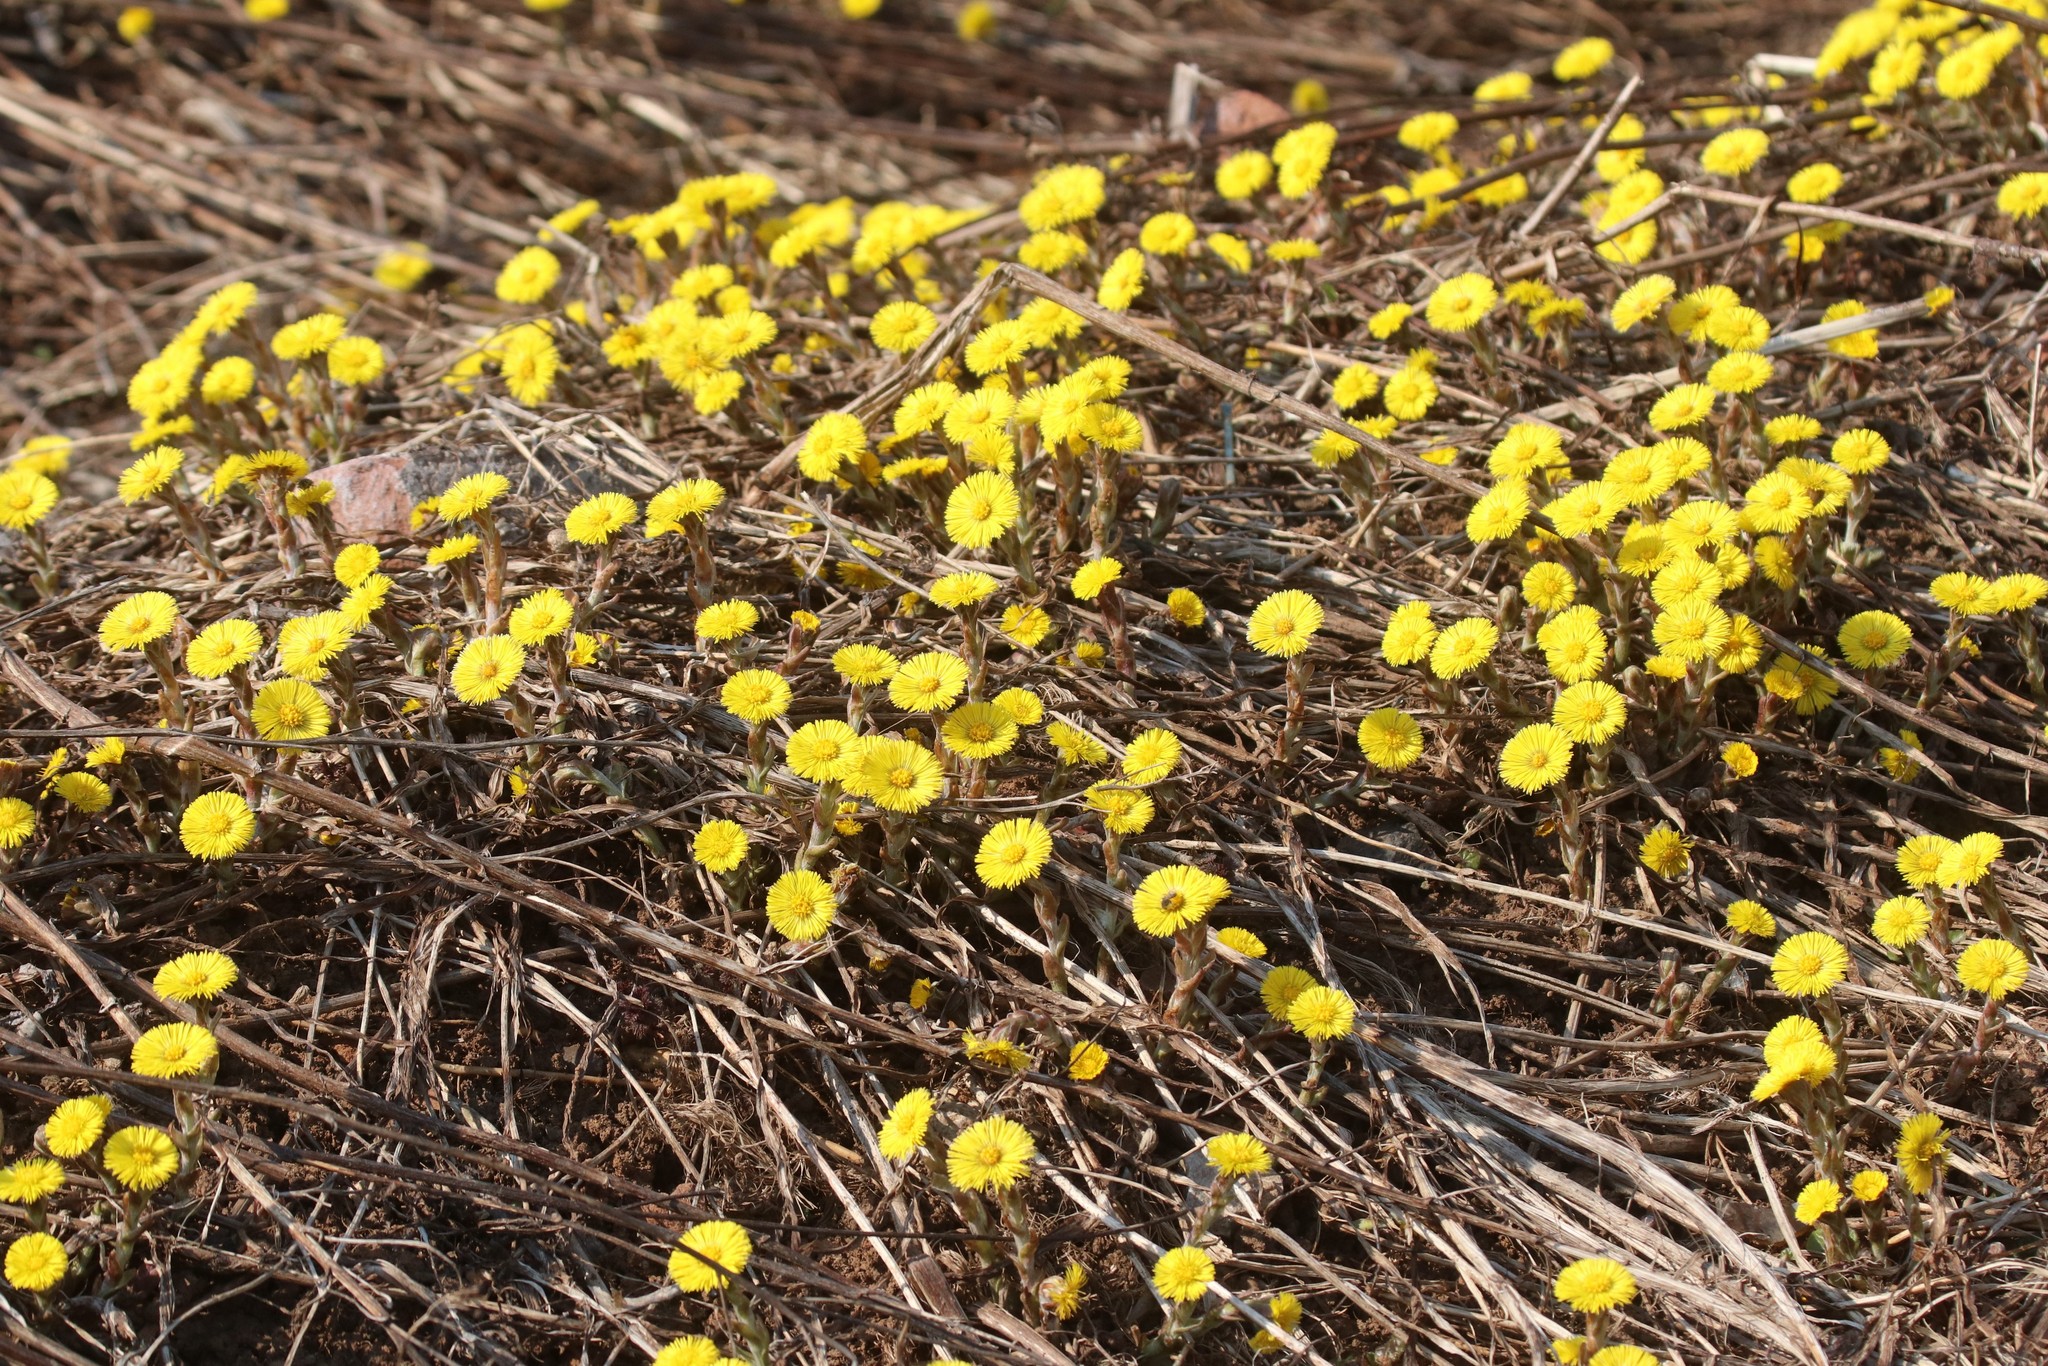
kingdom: Plantae
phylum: Tracheophyta
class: Magnoliopsida
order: Asterales
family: Asteraceae
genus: Tussilago
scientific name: Tussilago farfara
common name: Coltsfoot
